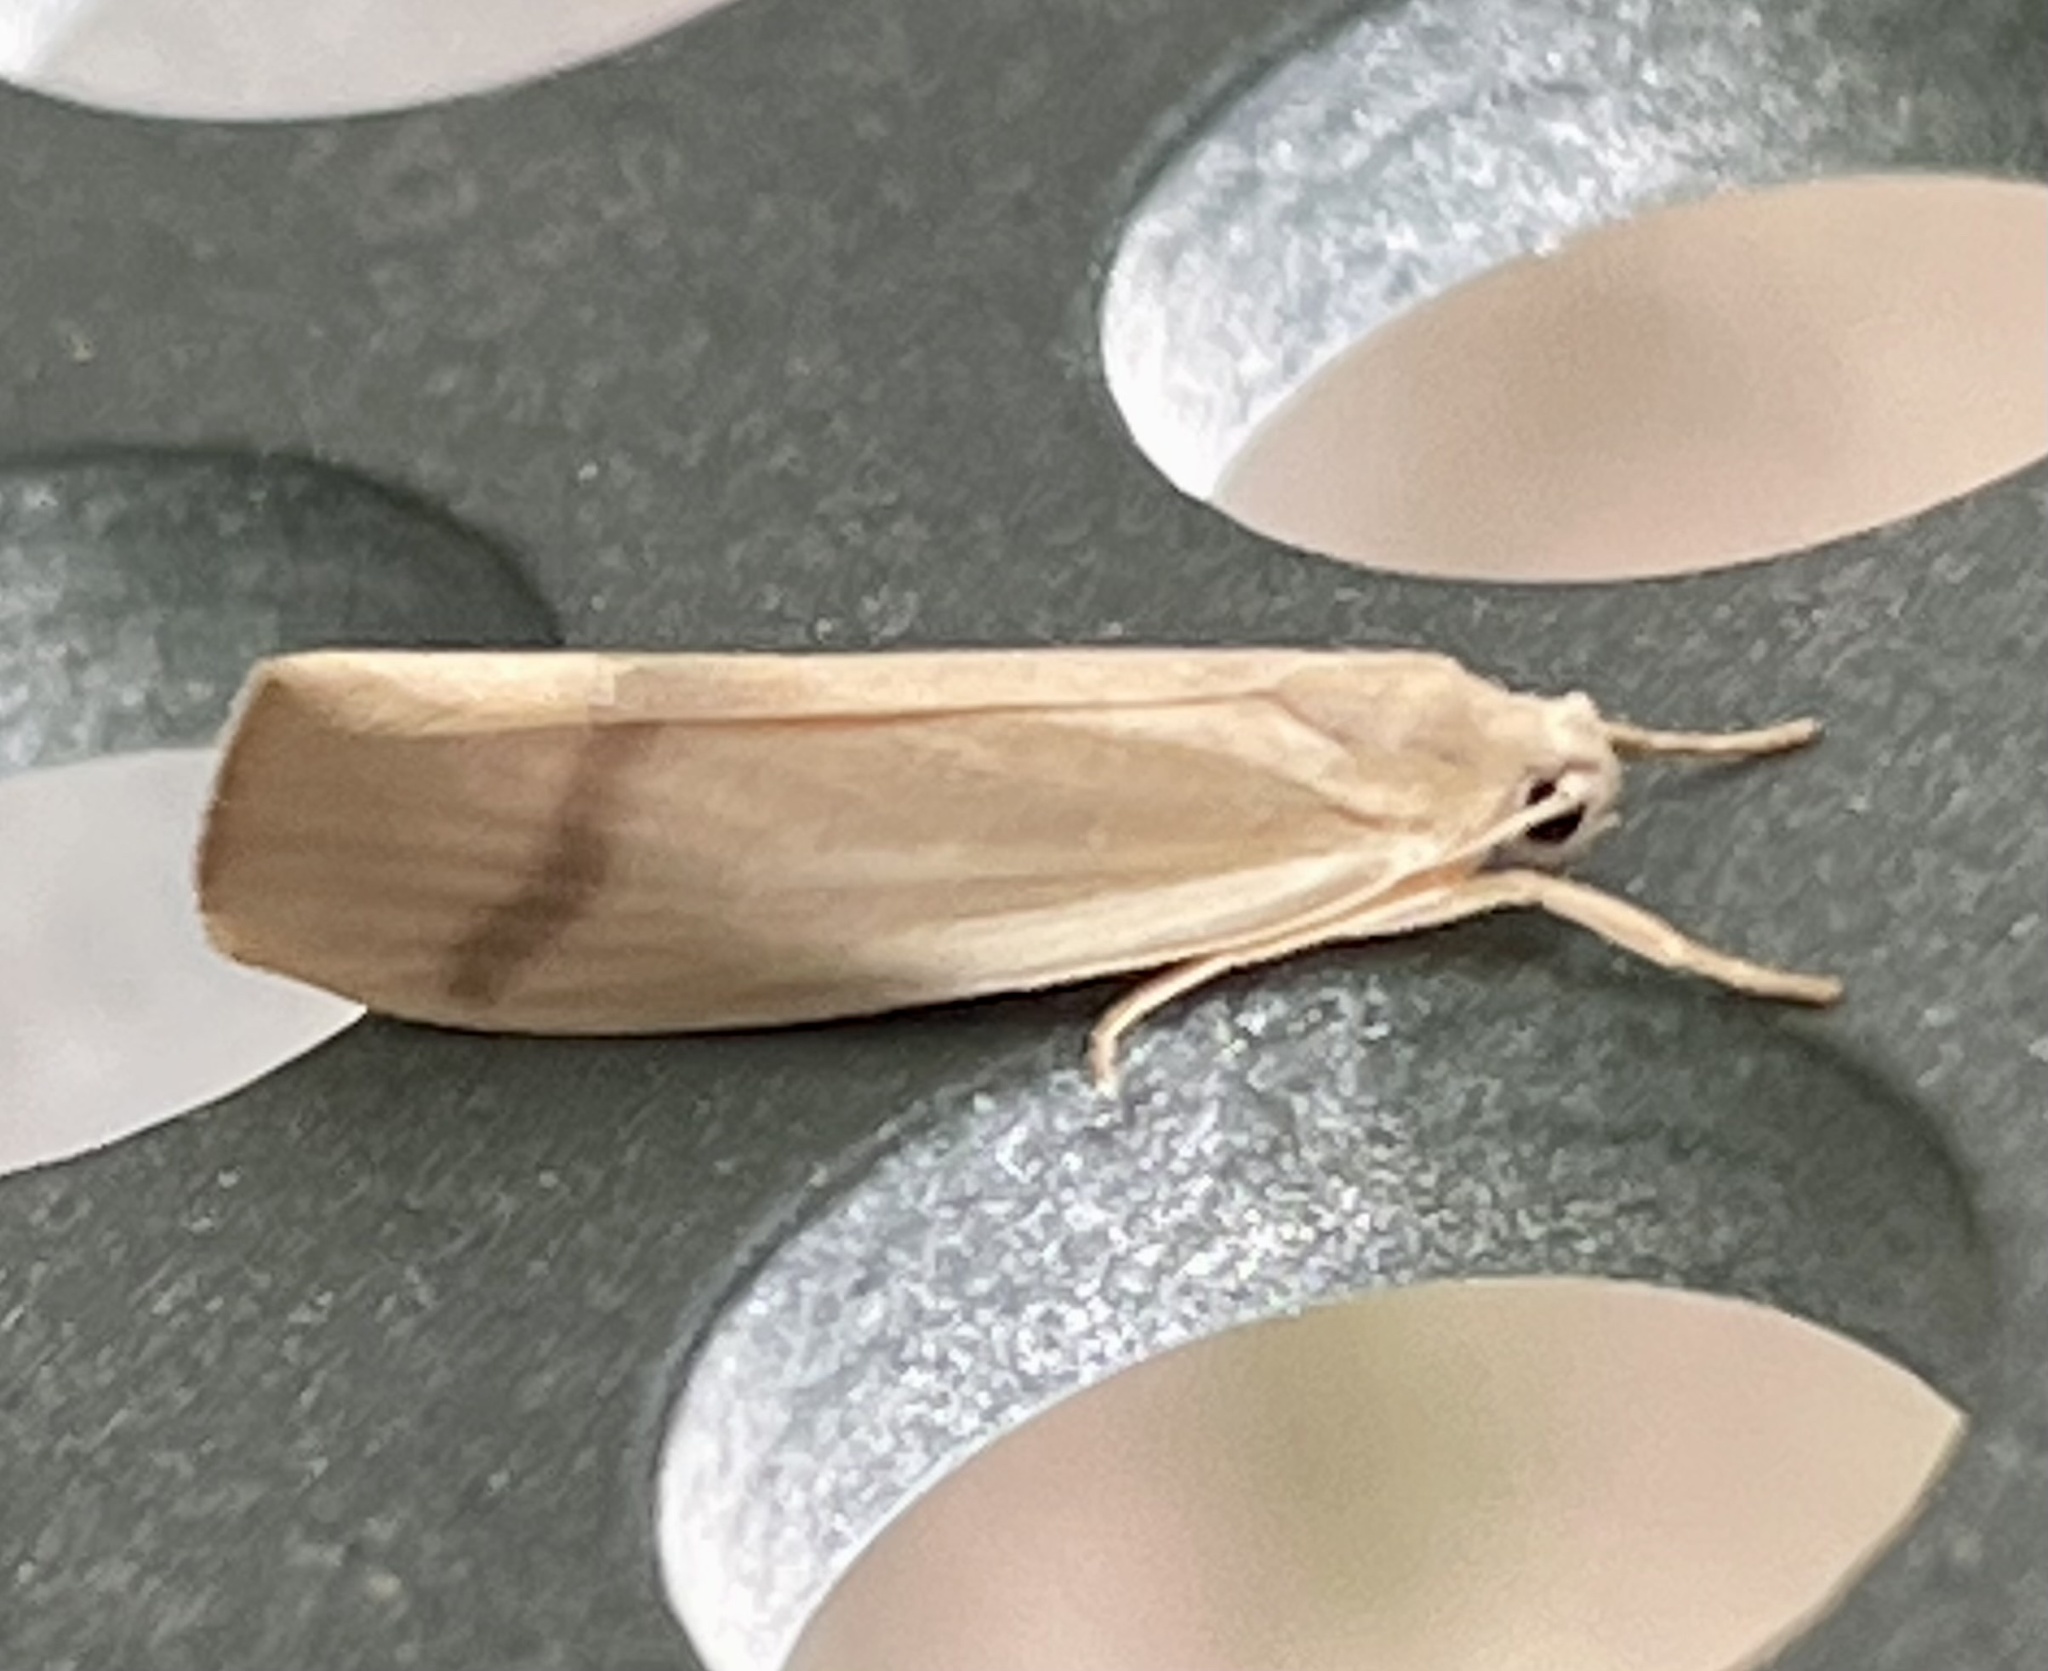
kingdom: Animalia
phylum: Arthropoda
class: Insecta
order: Lepidoptera
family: Erebidae
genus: Notata
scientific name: Notata modicus
